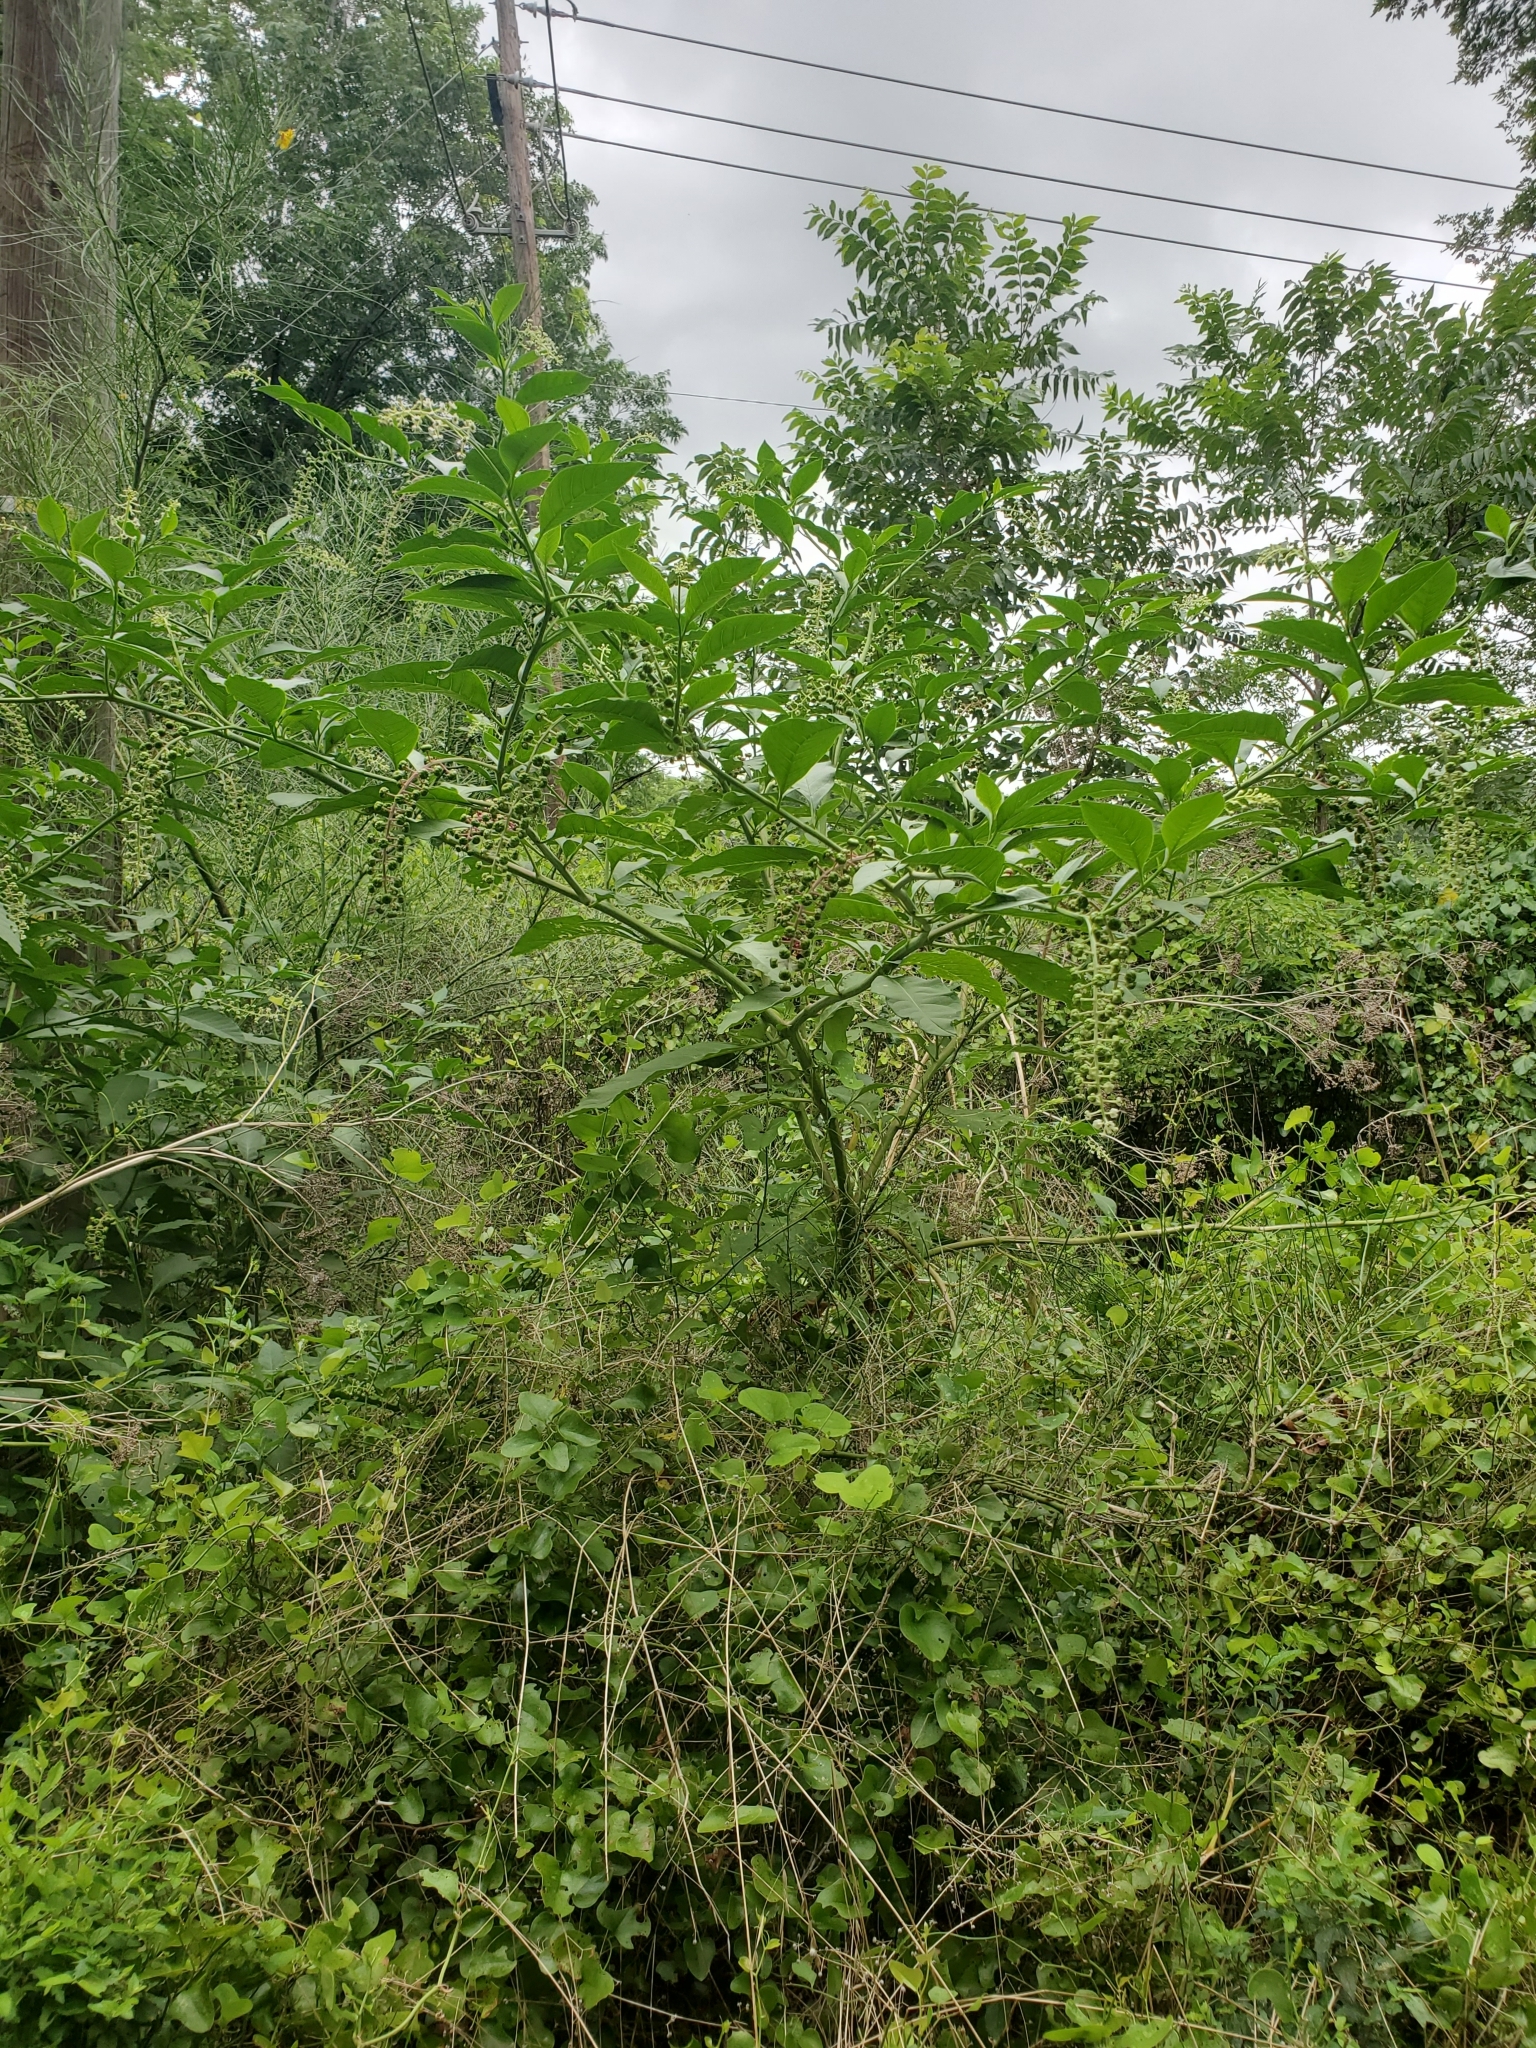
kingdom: Plantae
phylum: Tracheophyta
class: Magnoliopsida
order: Caryophyllales
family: Phytolaccaceae
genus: Phytolacca
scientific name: Phytolacca americana
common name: American pokeweed
